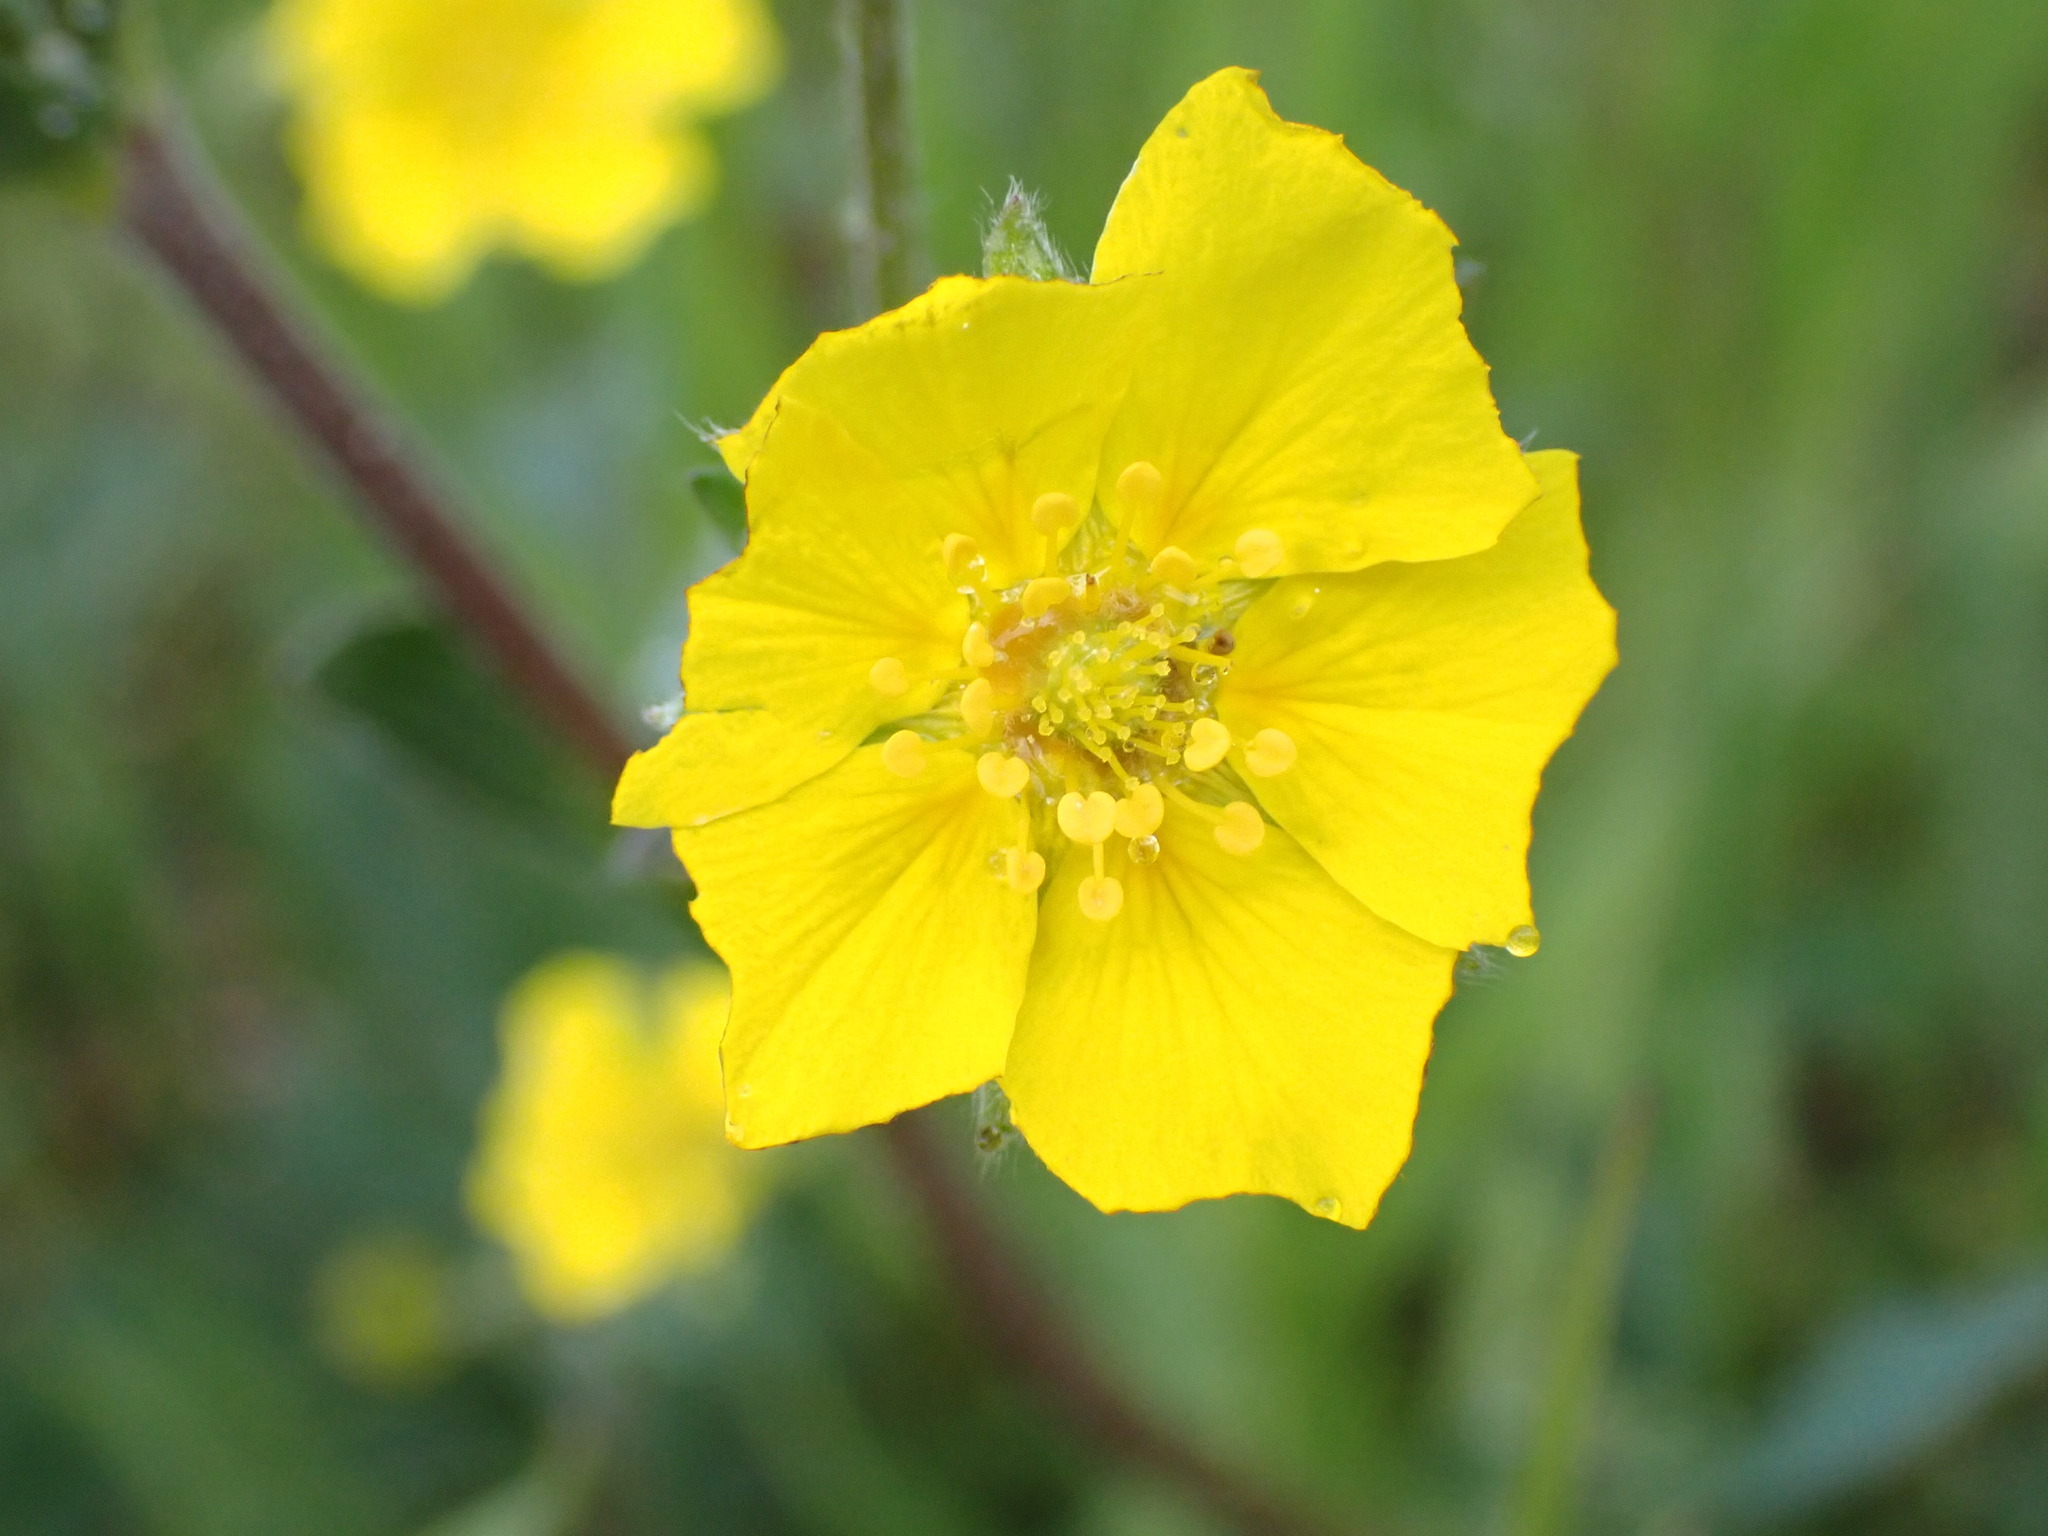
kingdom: Plantae
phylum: Tracheophyta
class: Magnoliopsida
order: Rosales
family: Rosaceae
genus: Potentilla
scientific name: Potentilla glaucophylla
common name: Blue-leaved cinquefoil
